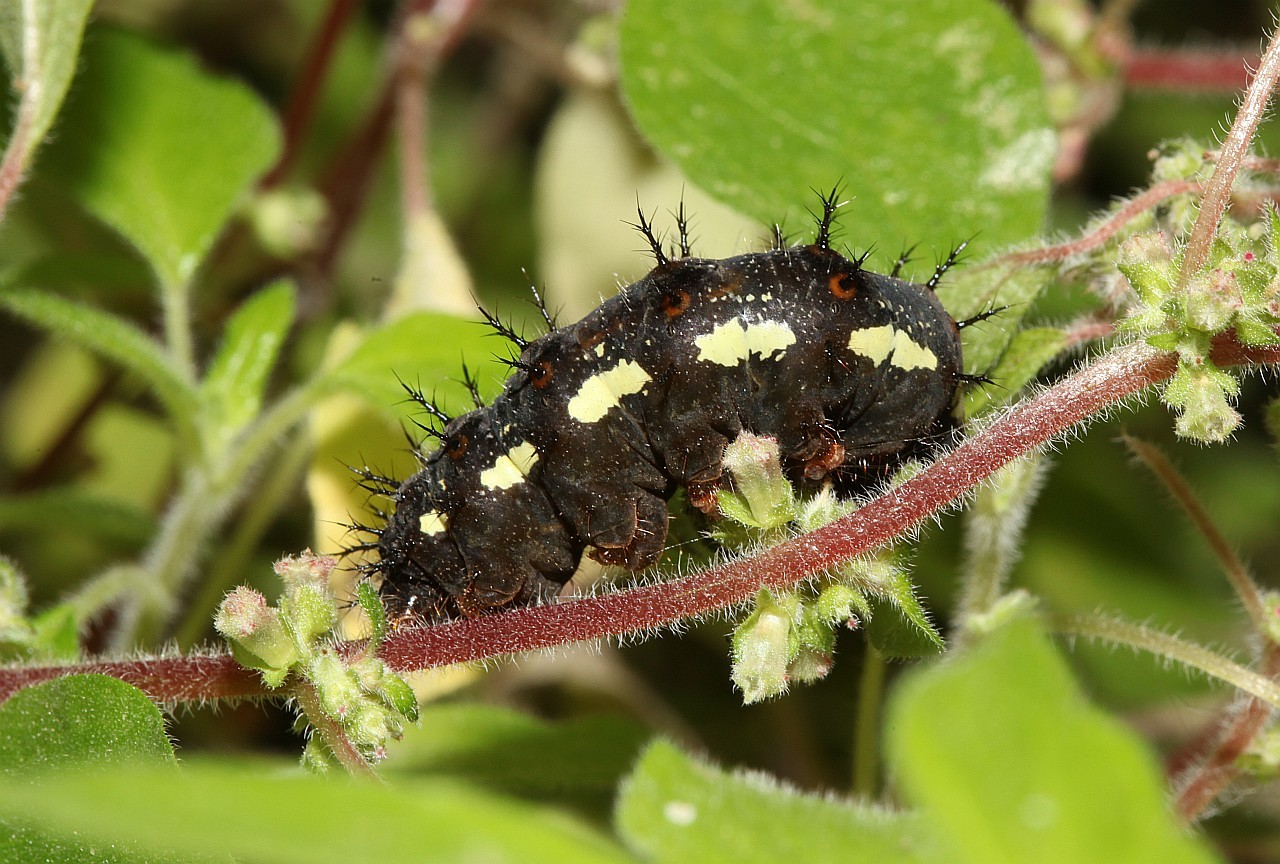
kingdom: Animalia
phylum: Arthropoda
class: Insecta
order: Lepidoptera
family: Nymphalidae
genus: Vanessa
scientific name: Vanessa atalanta
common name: Red admiral
